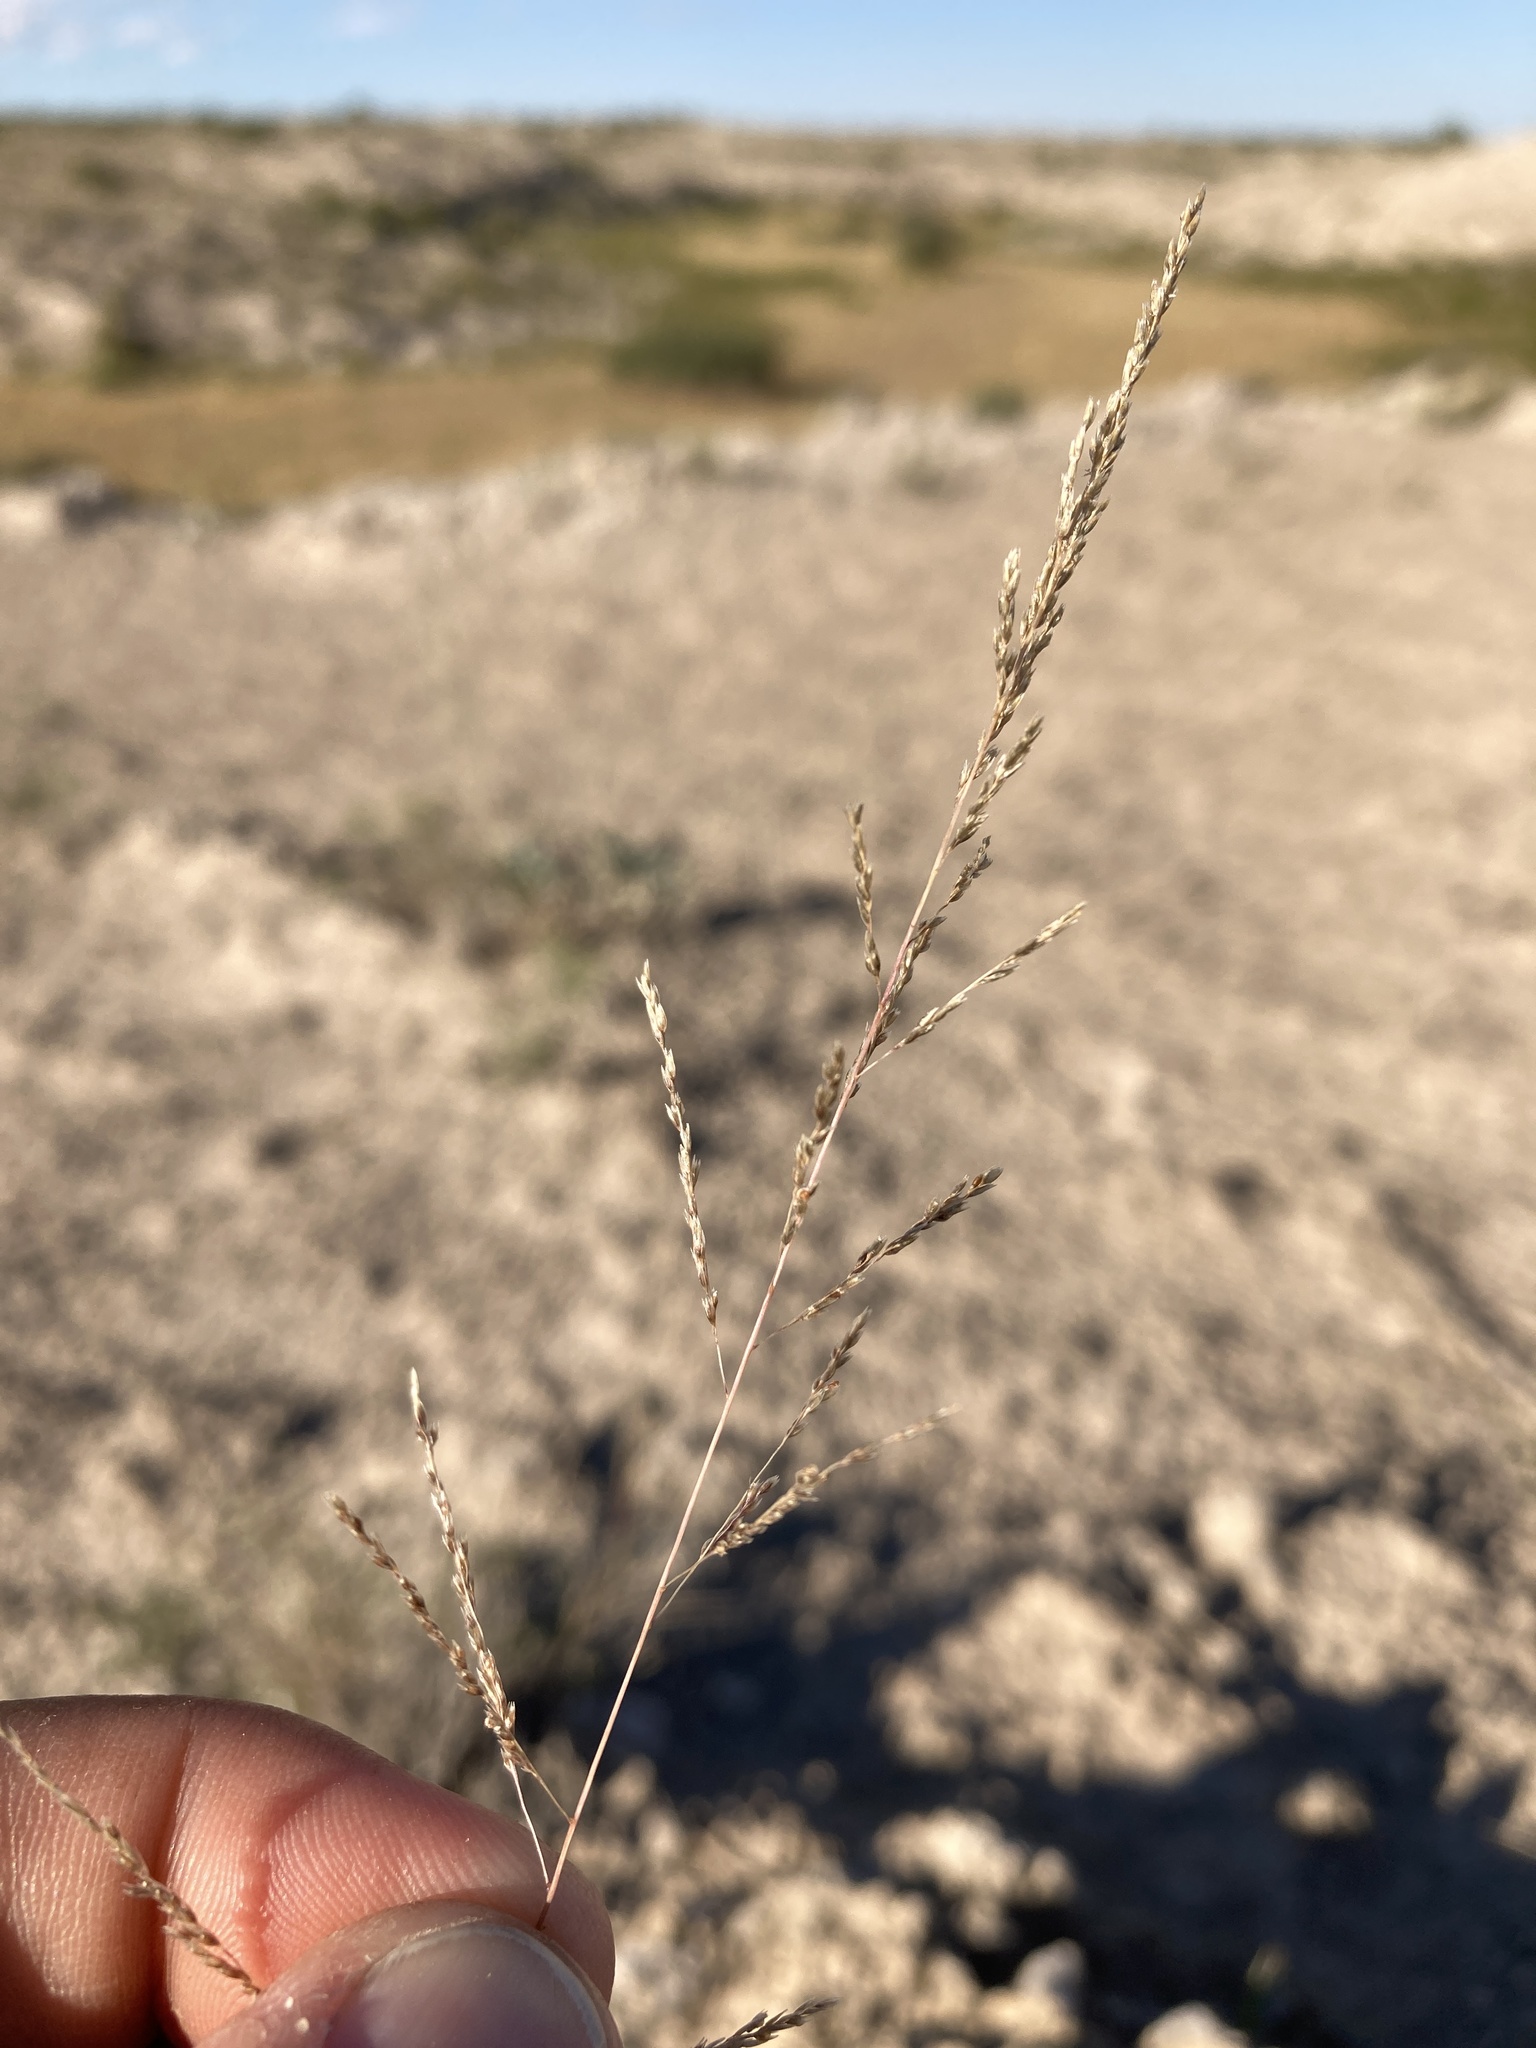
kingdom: Plantae
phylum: Tracheophyta
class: Liliopsida
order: Poales
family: Poaceae
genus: Sporobolus
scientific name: Sporobolus cryptandrus
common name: Sand dropseed
